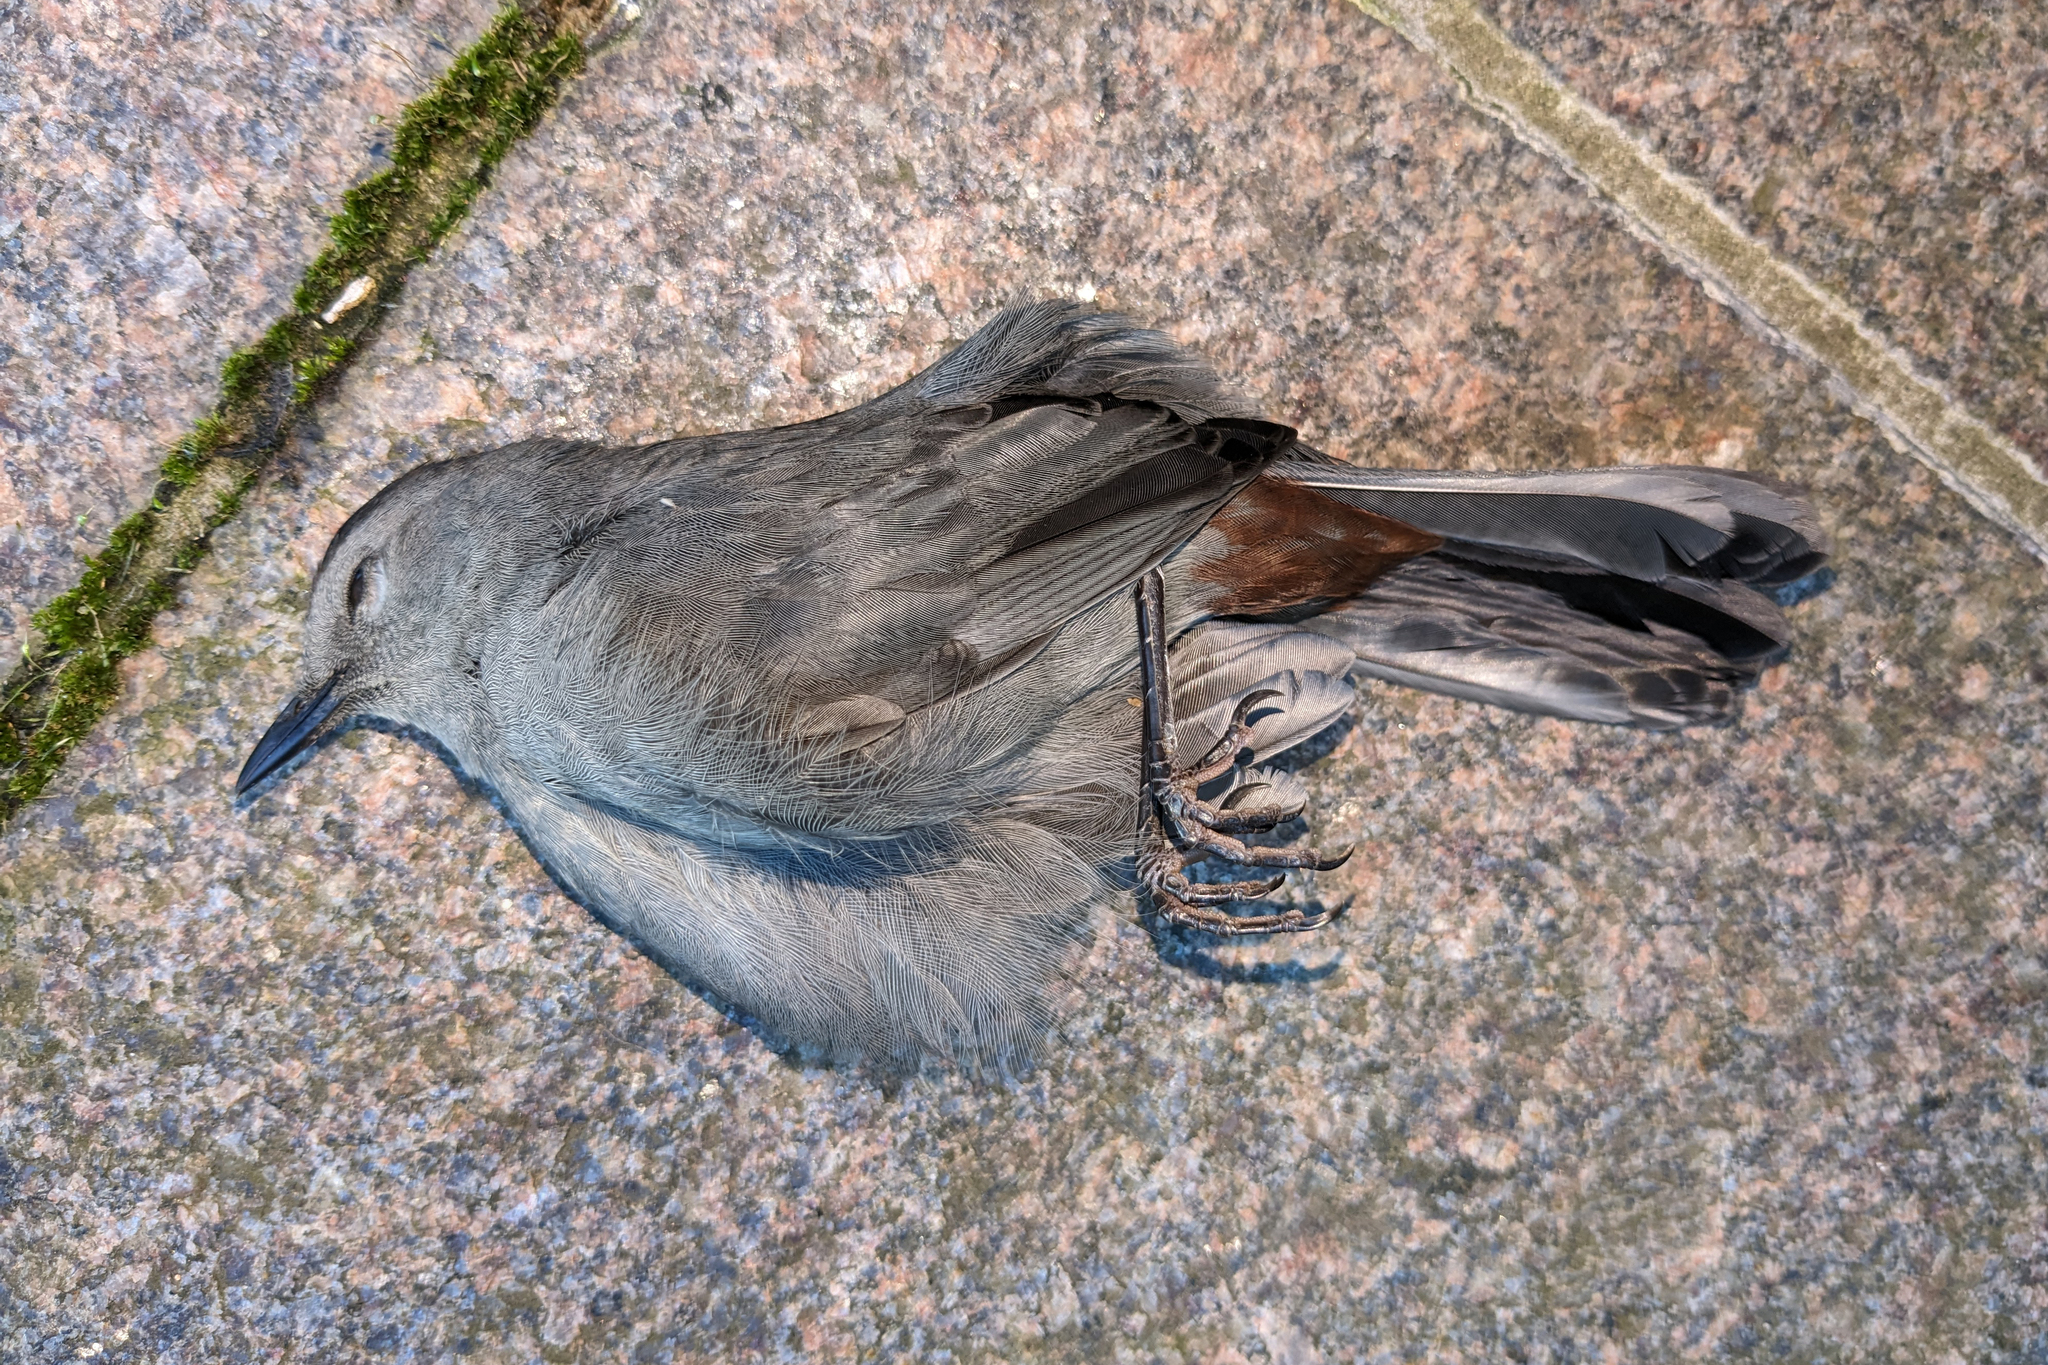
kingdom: Animalia
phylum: Chordata
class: Aves
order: Passeriformes
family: Mimidae
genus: Dumetella
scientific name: Dumetella carolinensis
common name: Gray catbird
